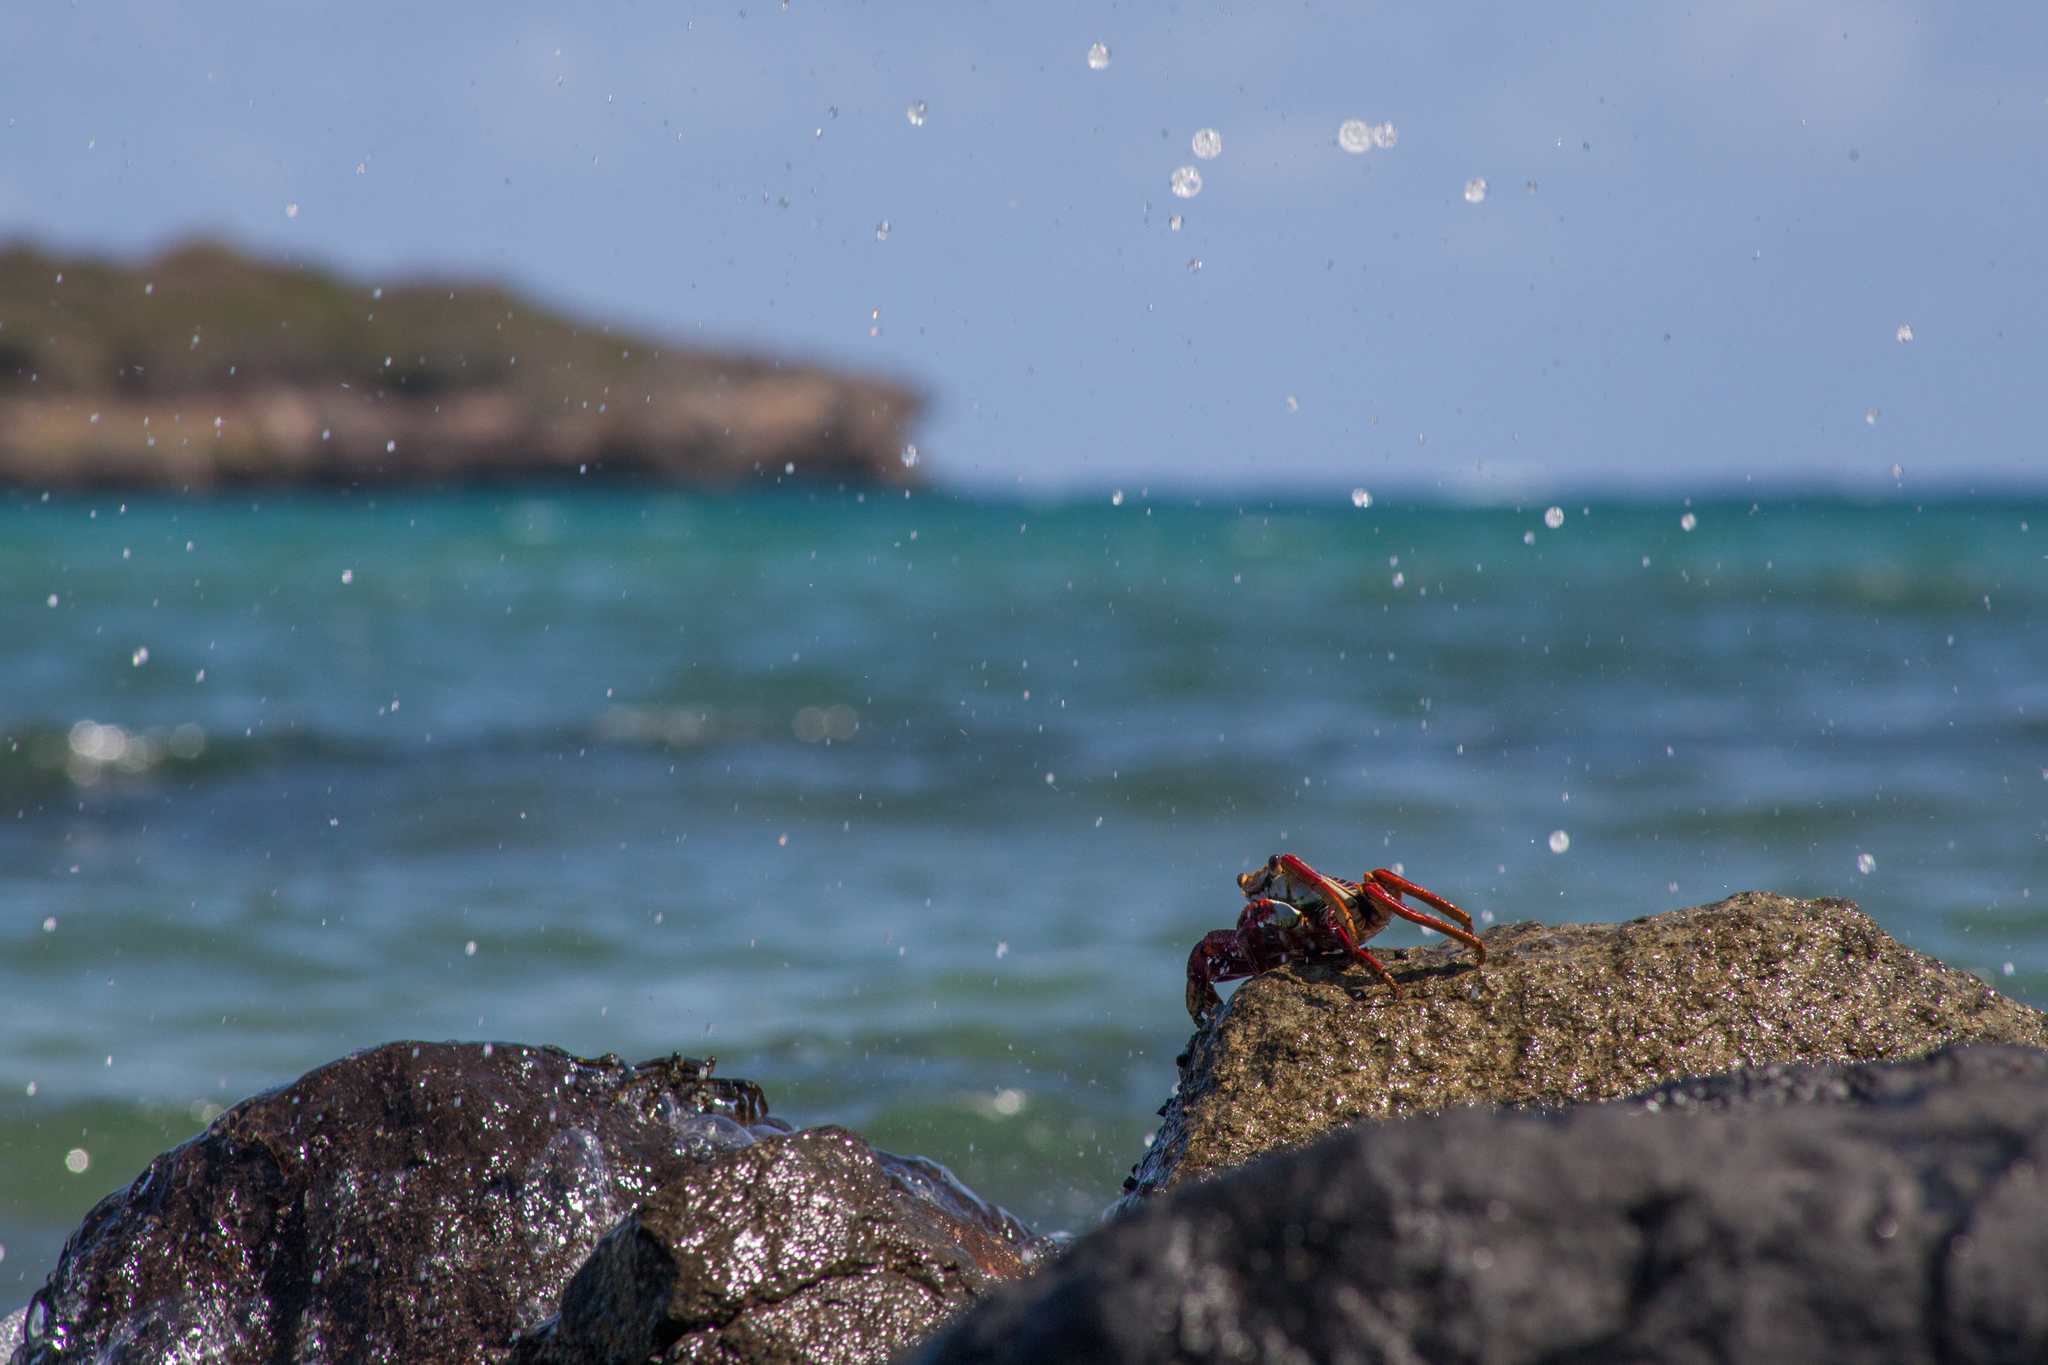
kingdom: Animalia
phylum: Arthropoda
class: Malacostraca
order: Decapoda
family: Grapsidae
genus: Grapsus
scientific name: Grapsus grapsus
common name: Sally lightfoot
